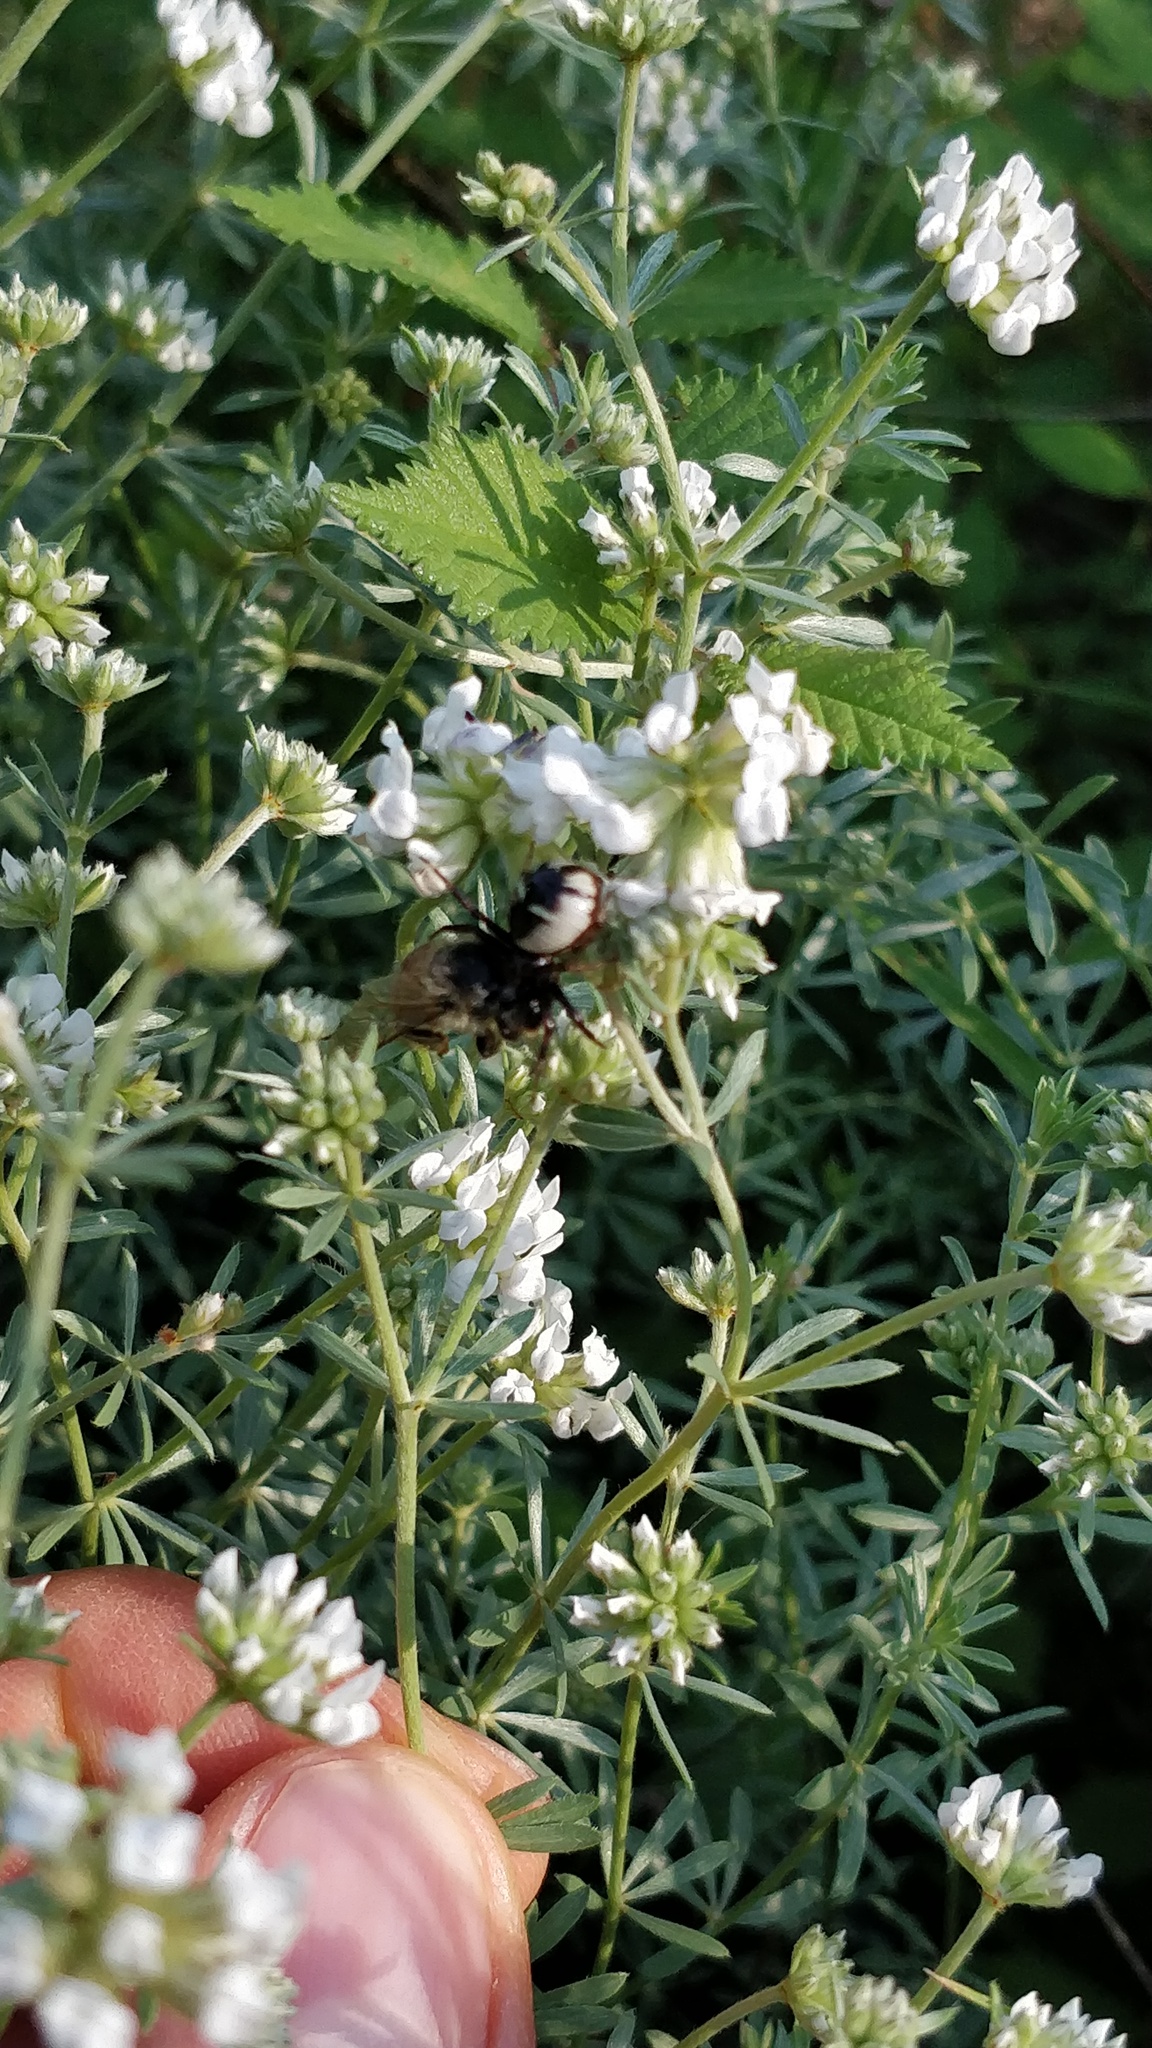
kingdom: Animalia
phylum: Arthropoda
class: Arachnida
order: Araneae
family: Thomisidae
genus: Synema
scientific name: Synema globosum
